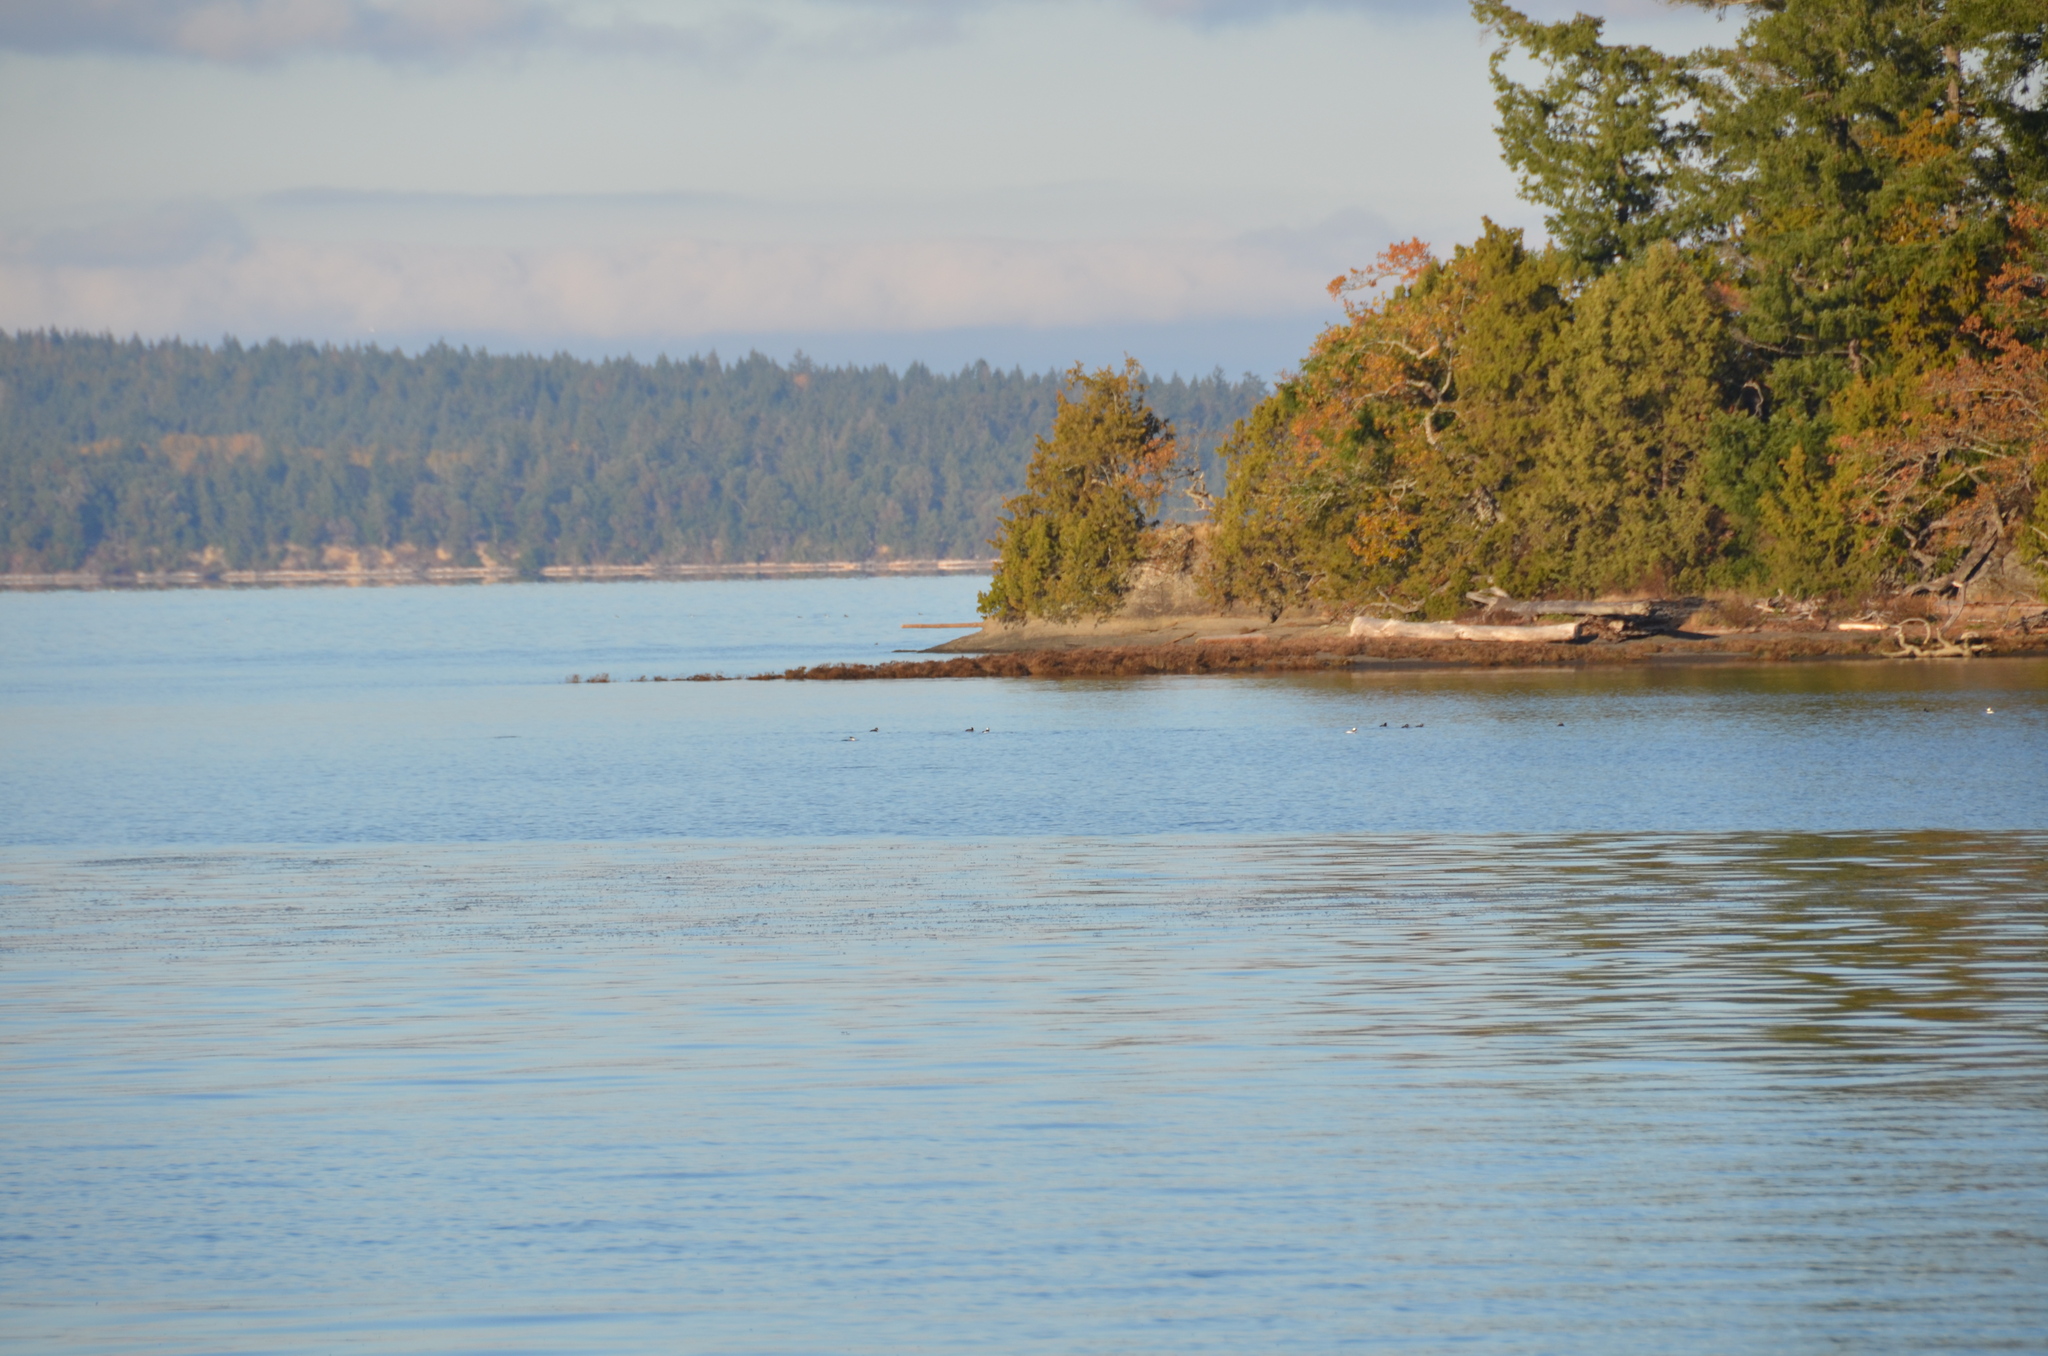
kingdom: Animalia
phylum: Chordata
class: Aves
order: Anseriformes
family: Anatidae
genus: Bucephala
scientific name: Bucephala albeola
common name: Bufflehead
